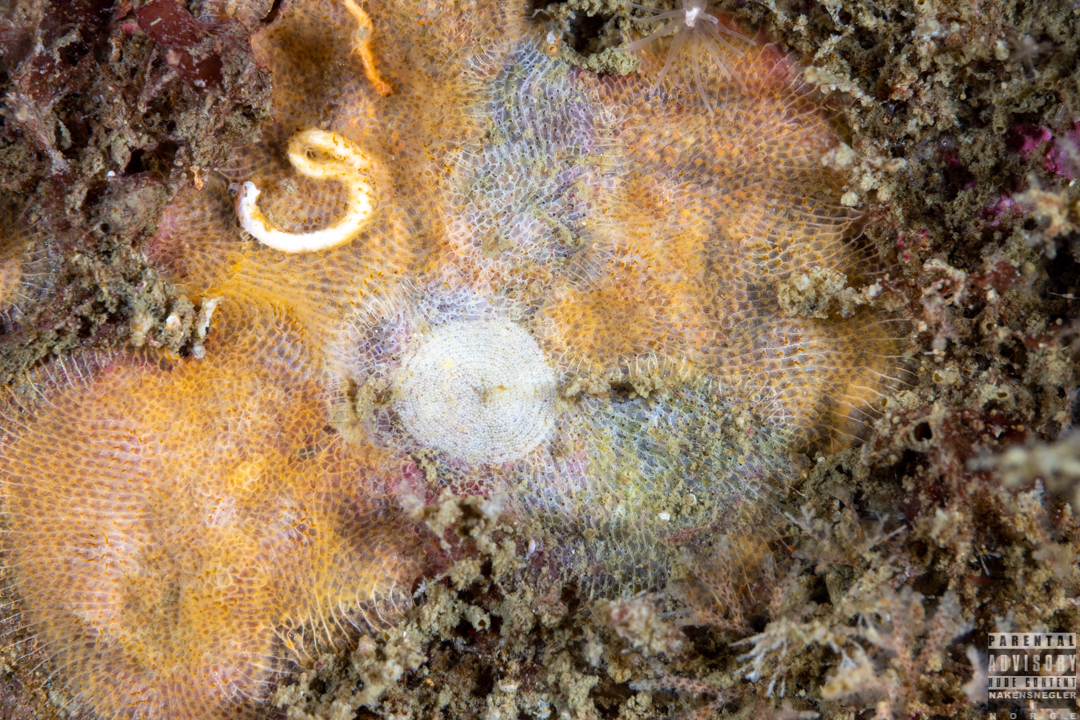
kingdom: Animalia
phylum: Mollusca
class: Gastropoda
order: Nudibranchia
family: Onchidorididae
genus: Idaliadoris
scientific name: Idaliadoris depressa
